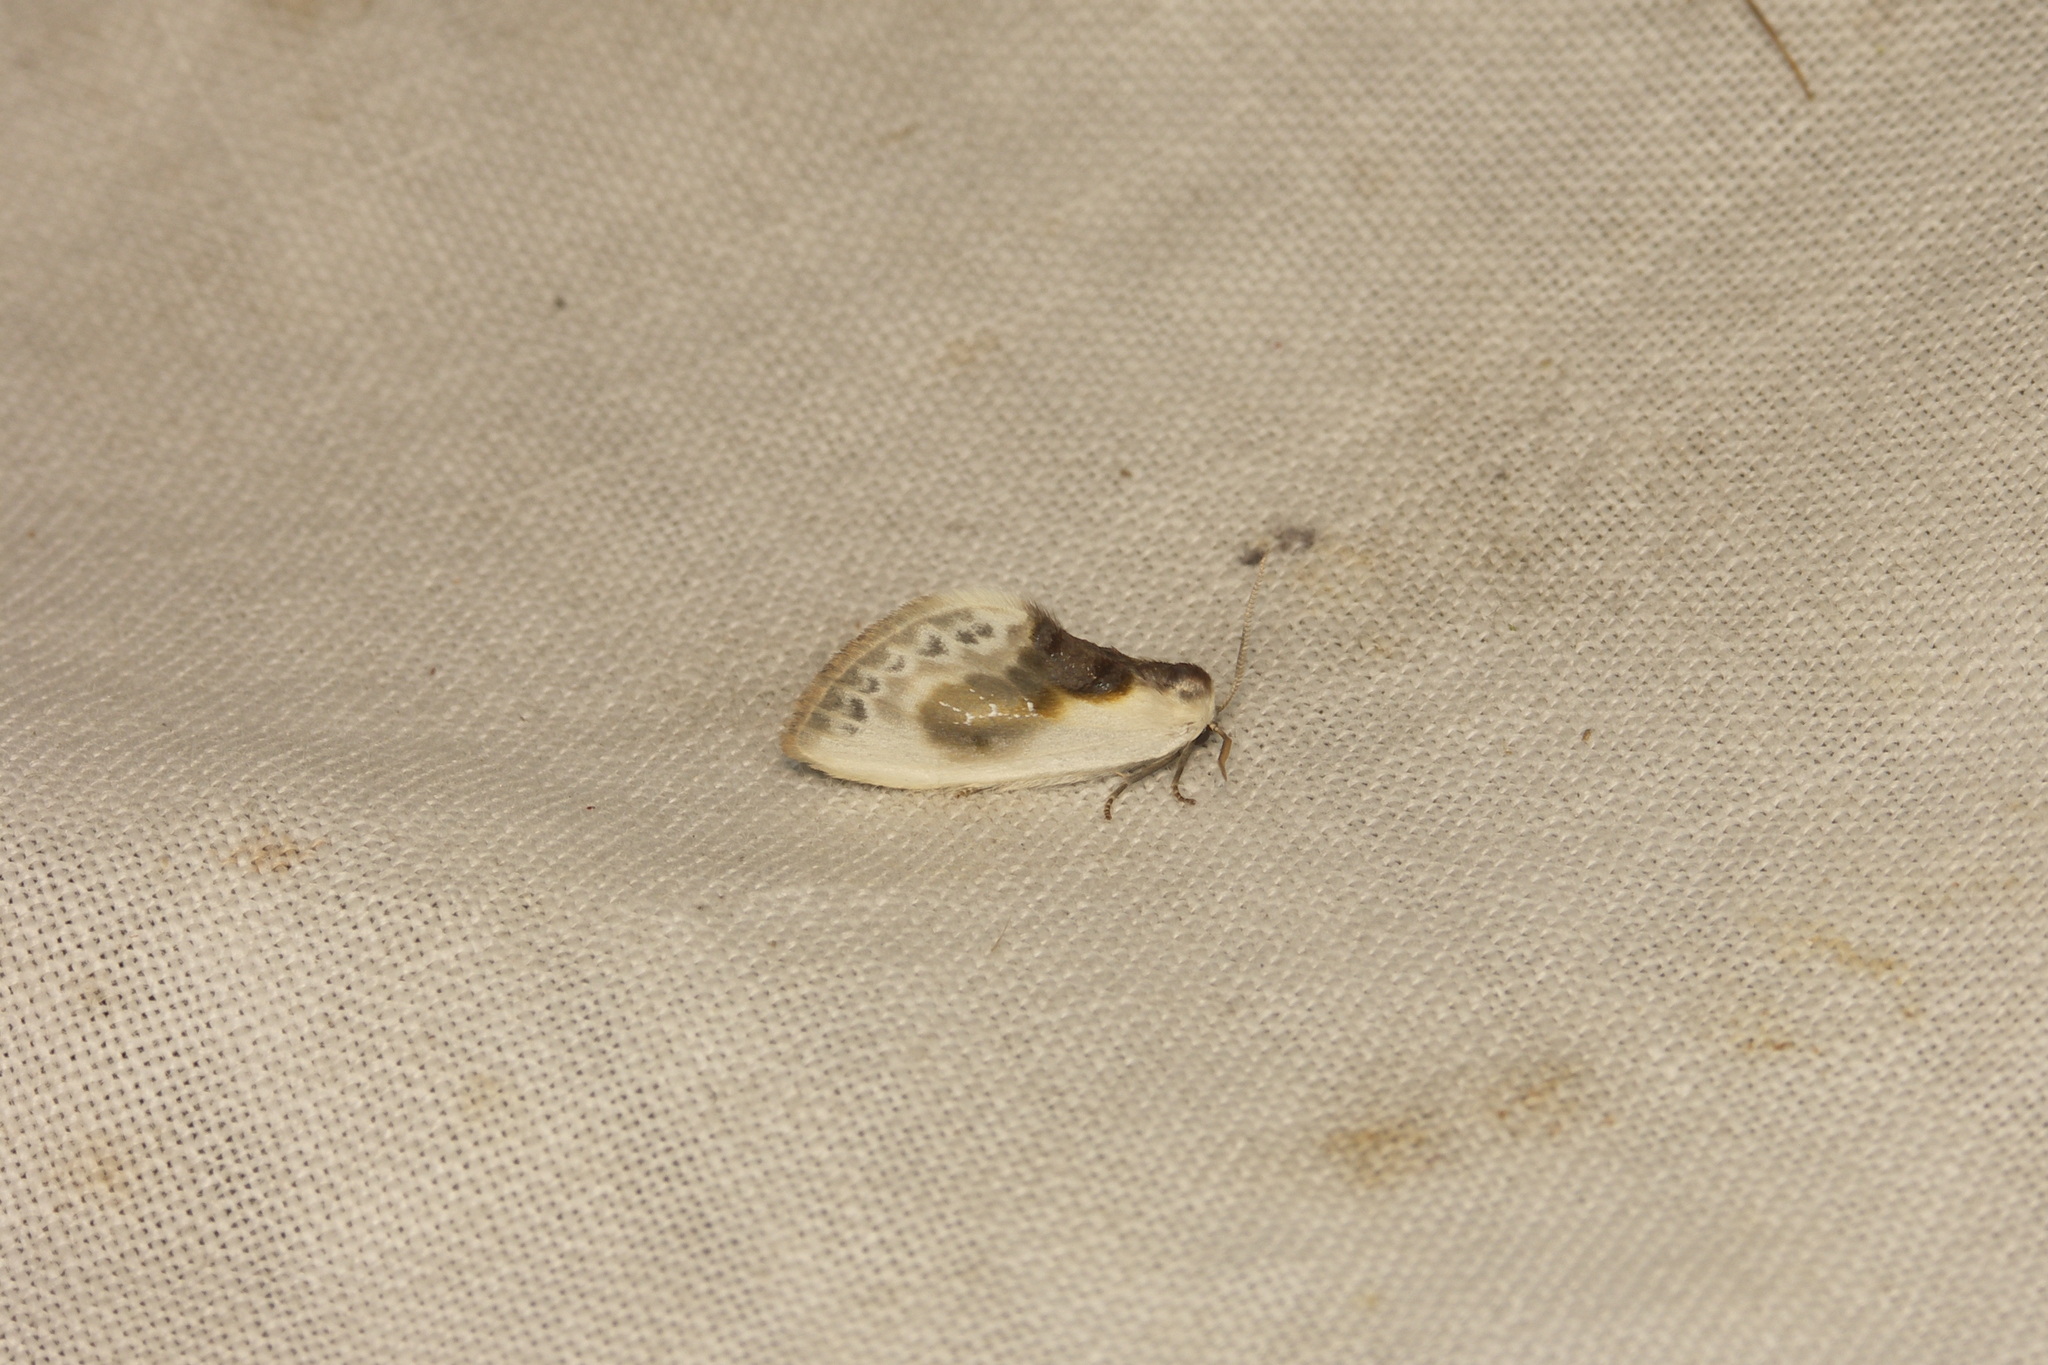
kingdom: Animalia
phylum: Arthropoda
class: Insecta
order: Lepidoptera
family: Drepanidae
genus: Cilix
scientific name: Cilix glaucata
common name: Chinese character
